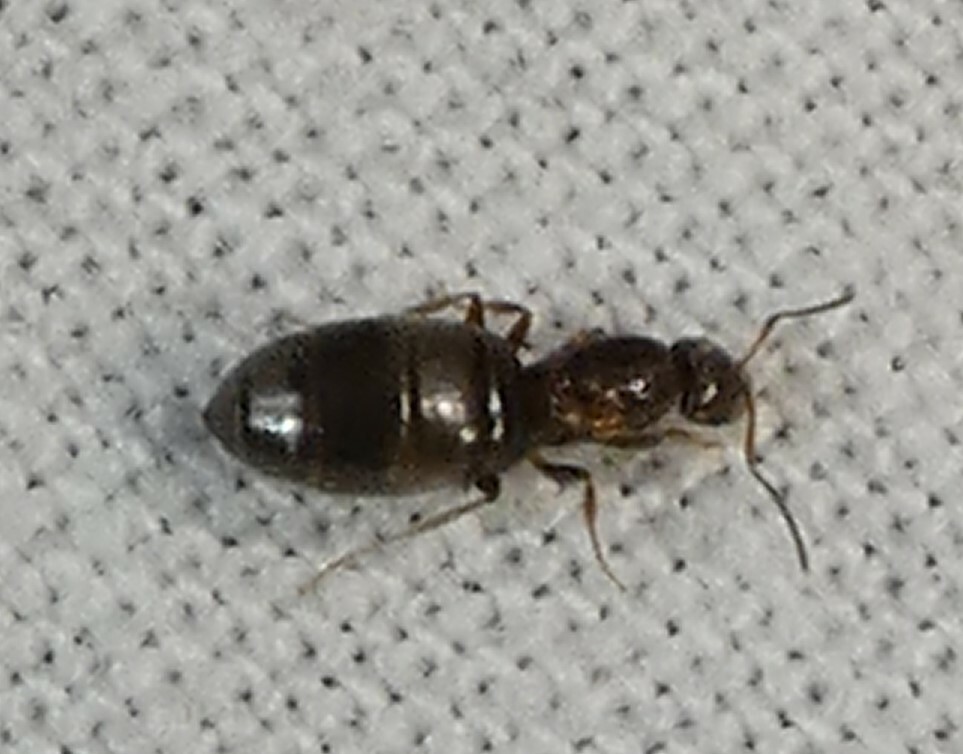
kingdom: Animalia
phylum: Arthropoda
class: Insecta
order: Hymenoptera
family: Formicidae
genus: Brachymyrmex
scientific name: Brachymyrmex patagonicus
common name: Dark rover ant
